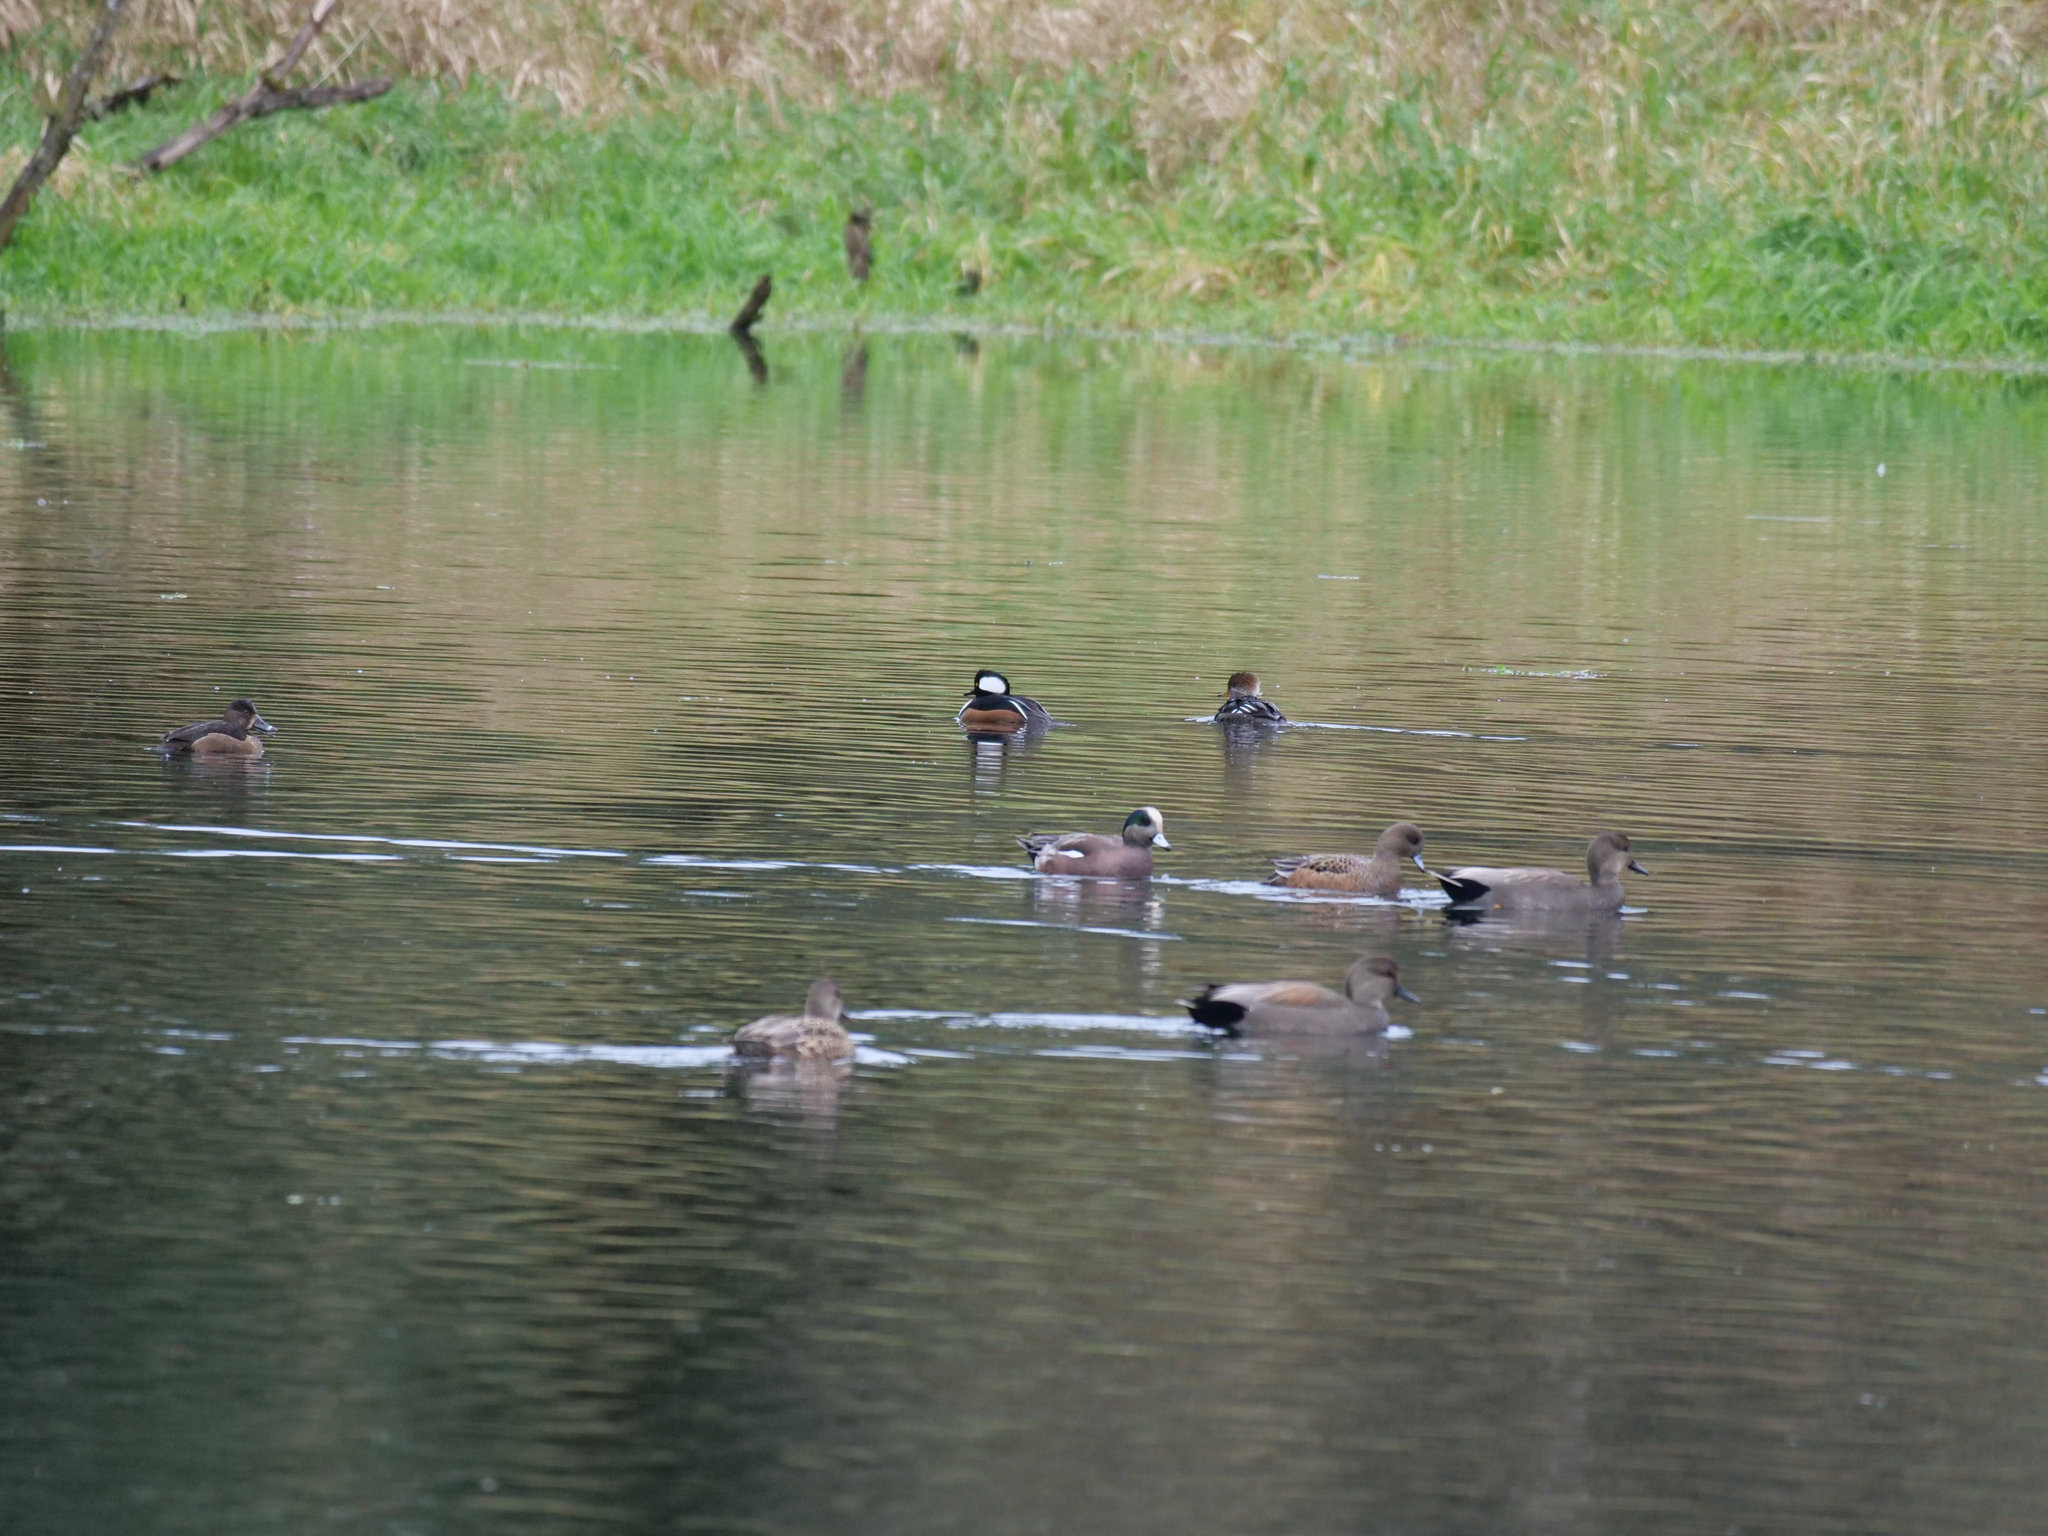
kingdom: Animalia
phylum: Chordata
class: Aves
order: Anseriformes
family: Anatidae
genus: Lophodytes
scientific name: Lophodytes cucullatus
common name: Hooded merganser
